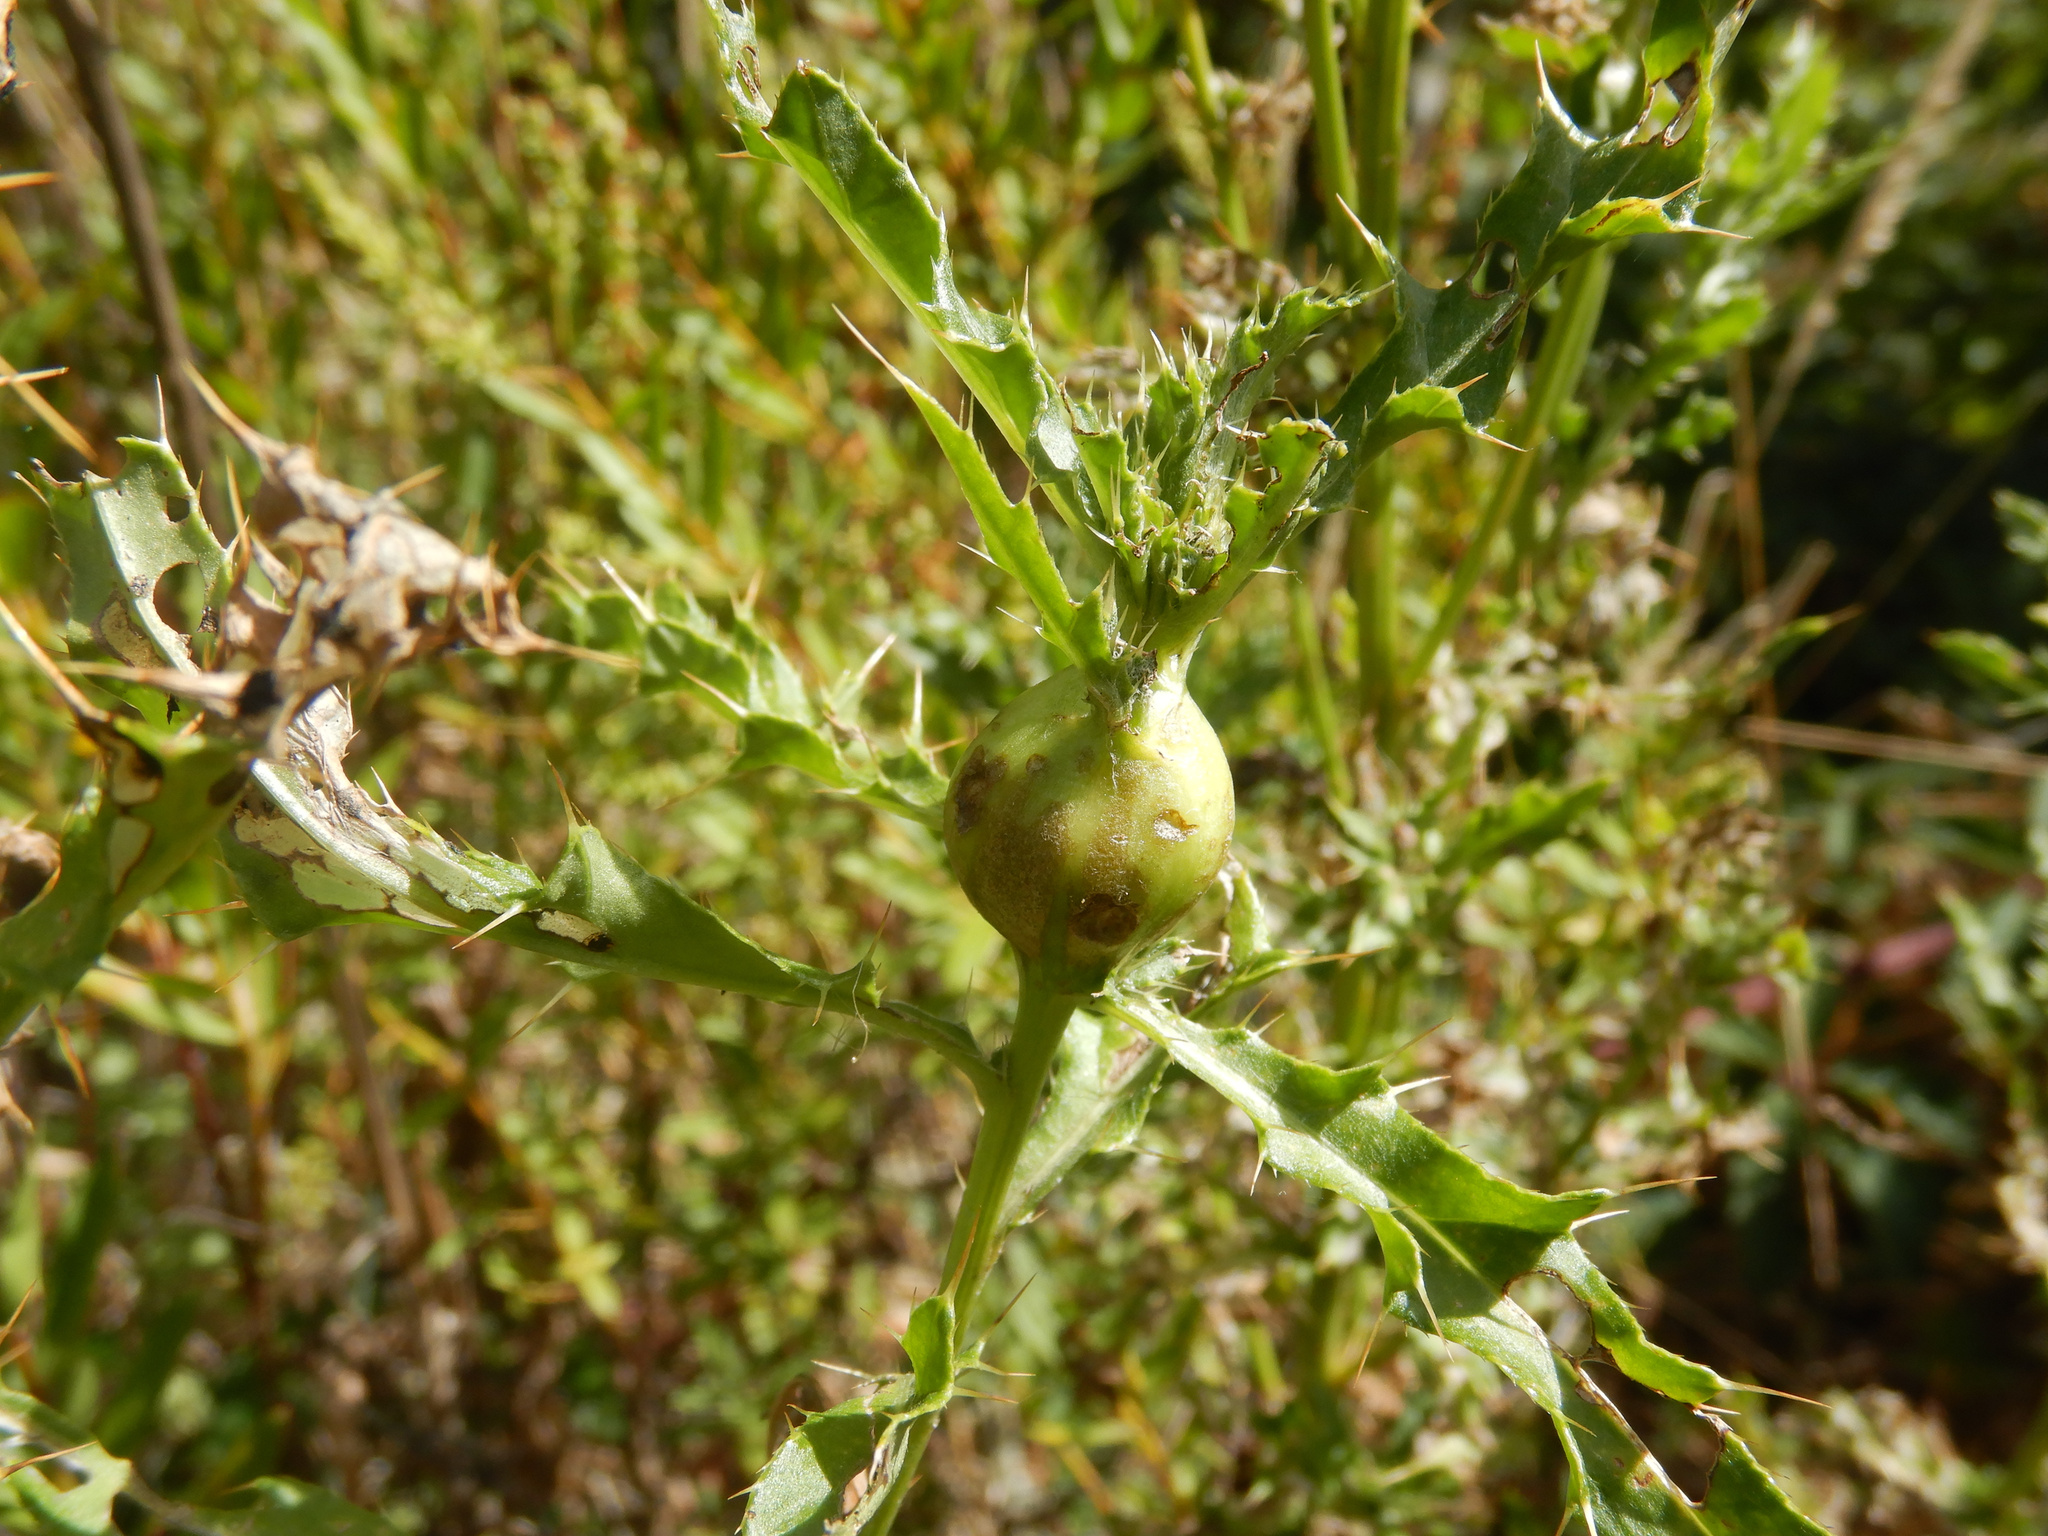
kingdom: Animalia
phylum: Arthropoda
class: Insecta
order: Diptera
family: Tephritidae
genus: Urophora
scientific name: Urophora cardui
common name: Fruit fly
